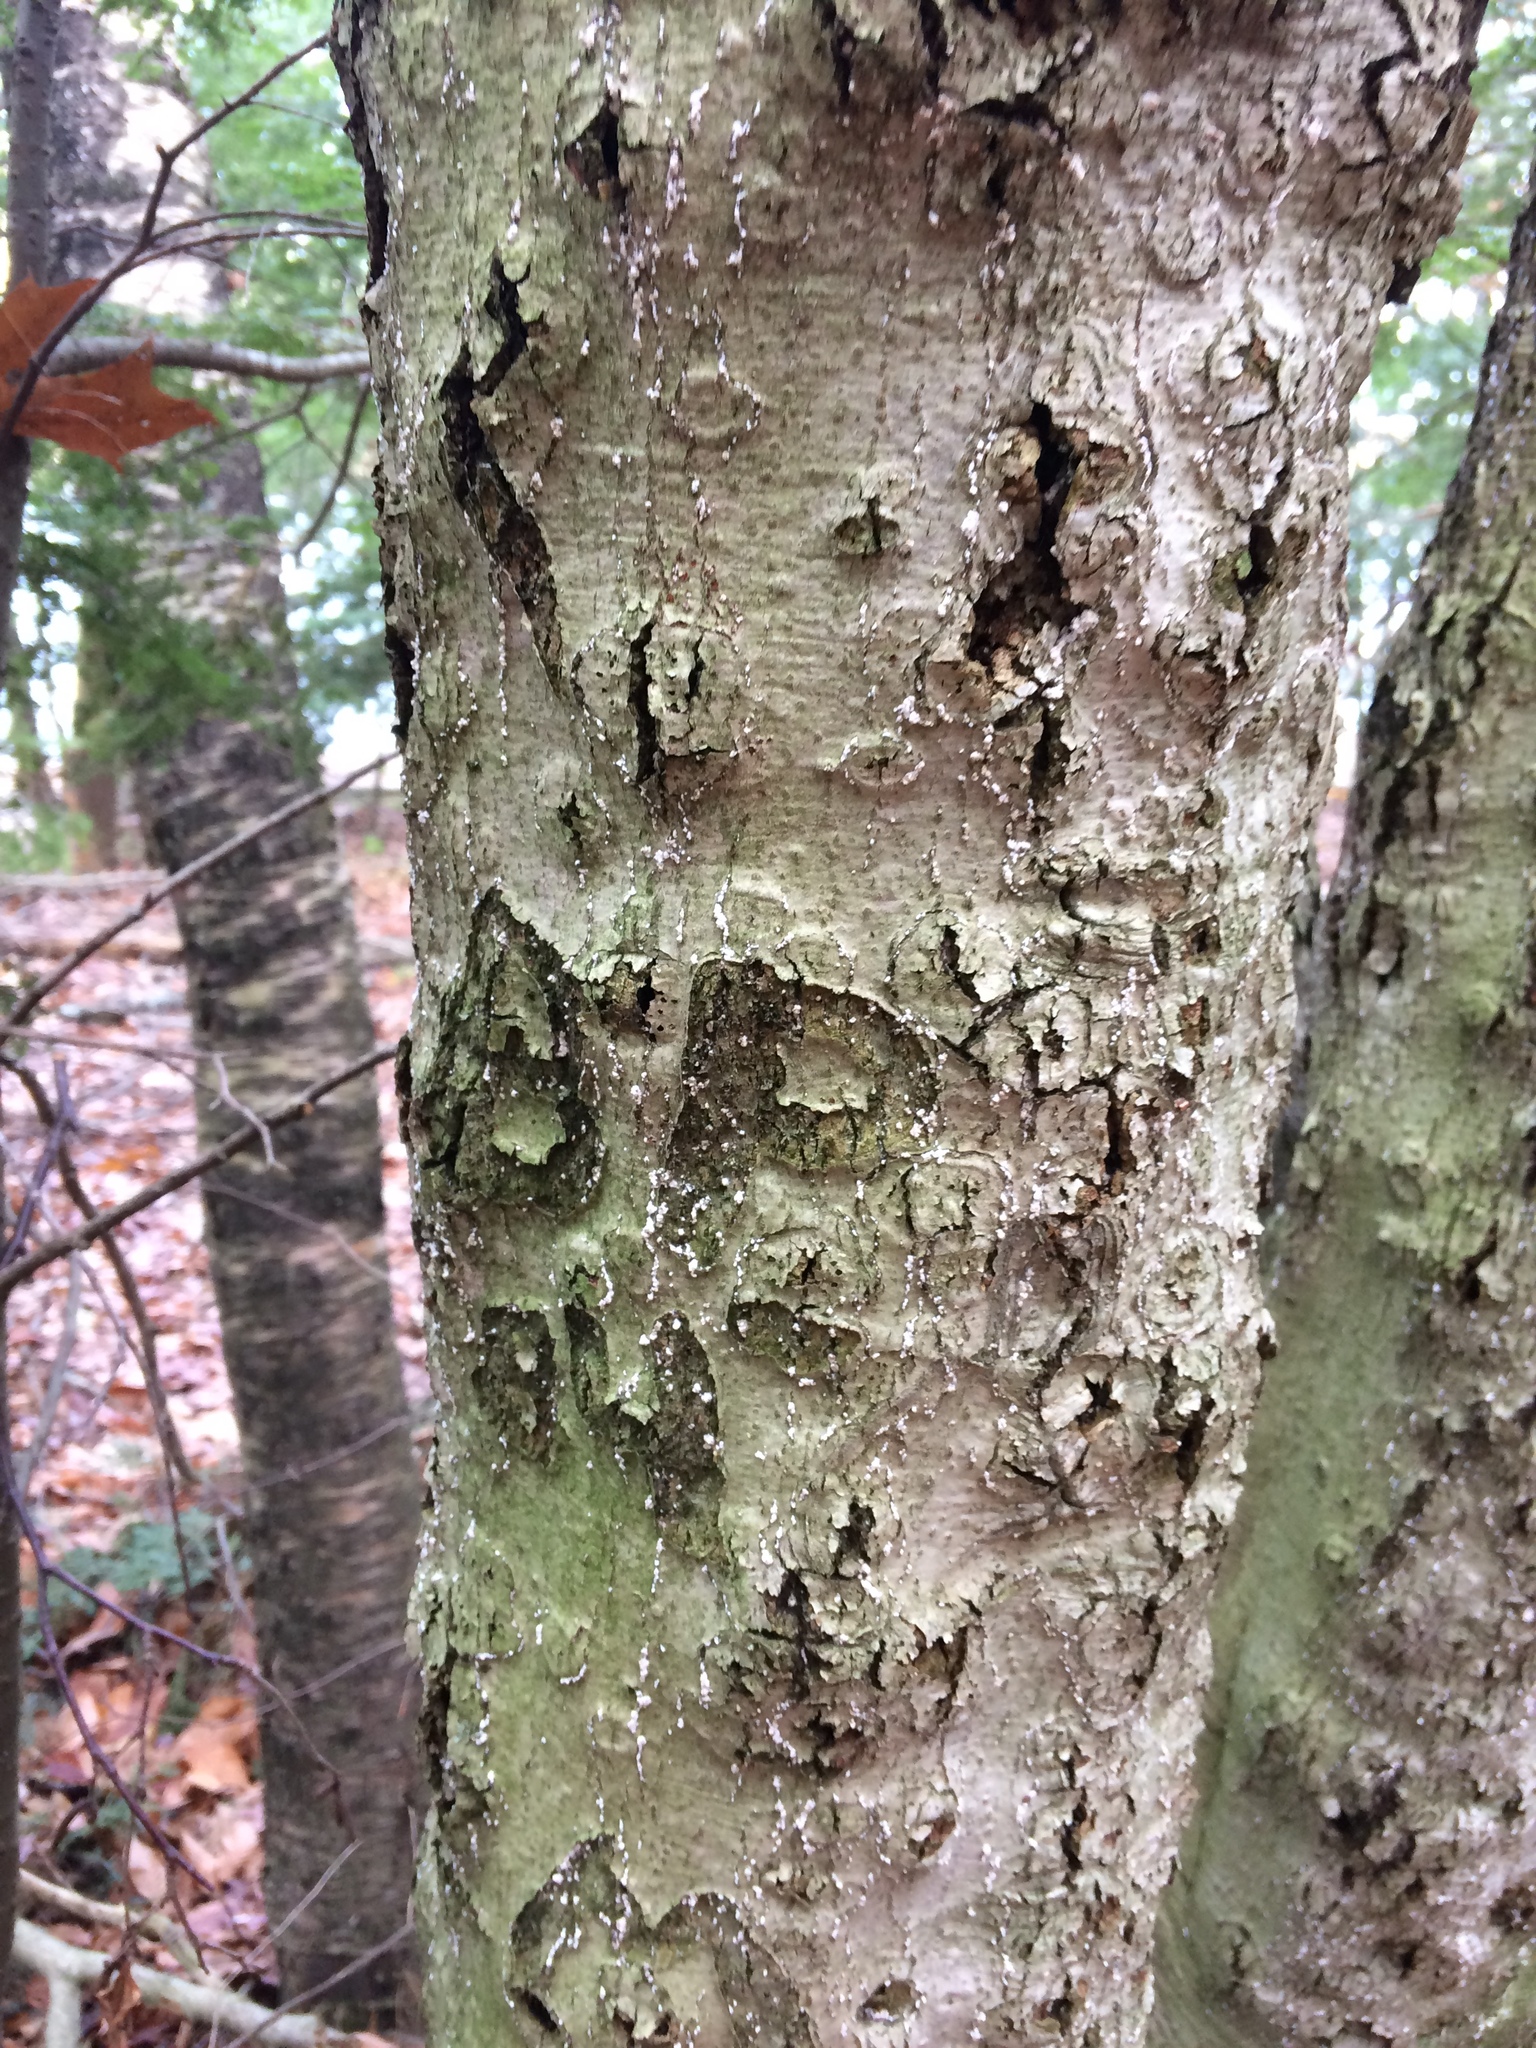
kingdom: Animalia
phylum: Arthropoda
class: Insecta
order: Hemiptera
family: Eriococcidae
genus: Cryptococcus
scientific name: Cryptococcus fagisuga
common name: Beech scale
